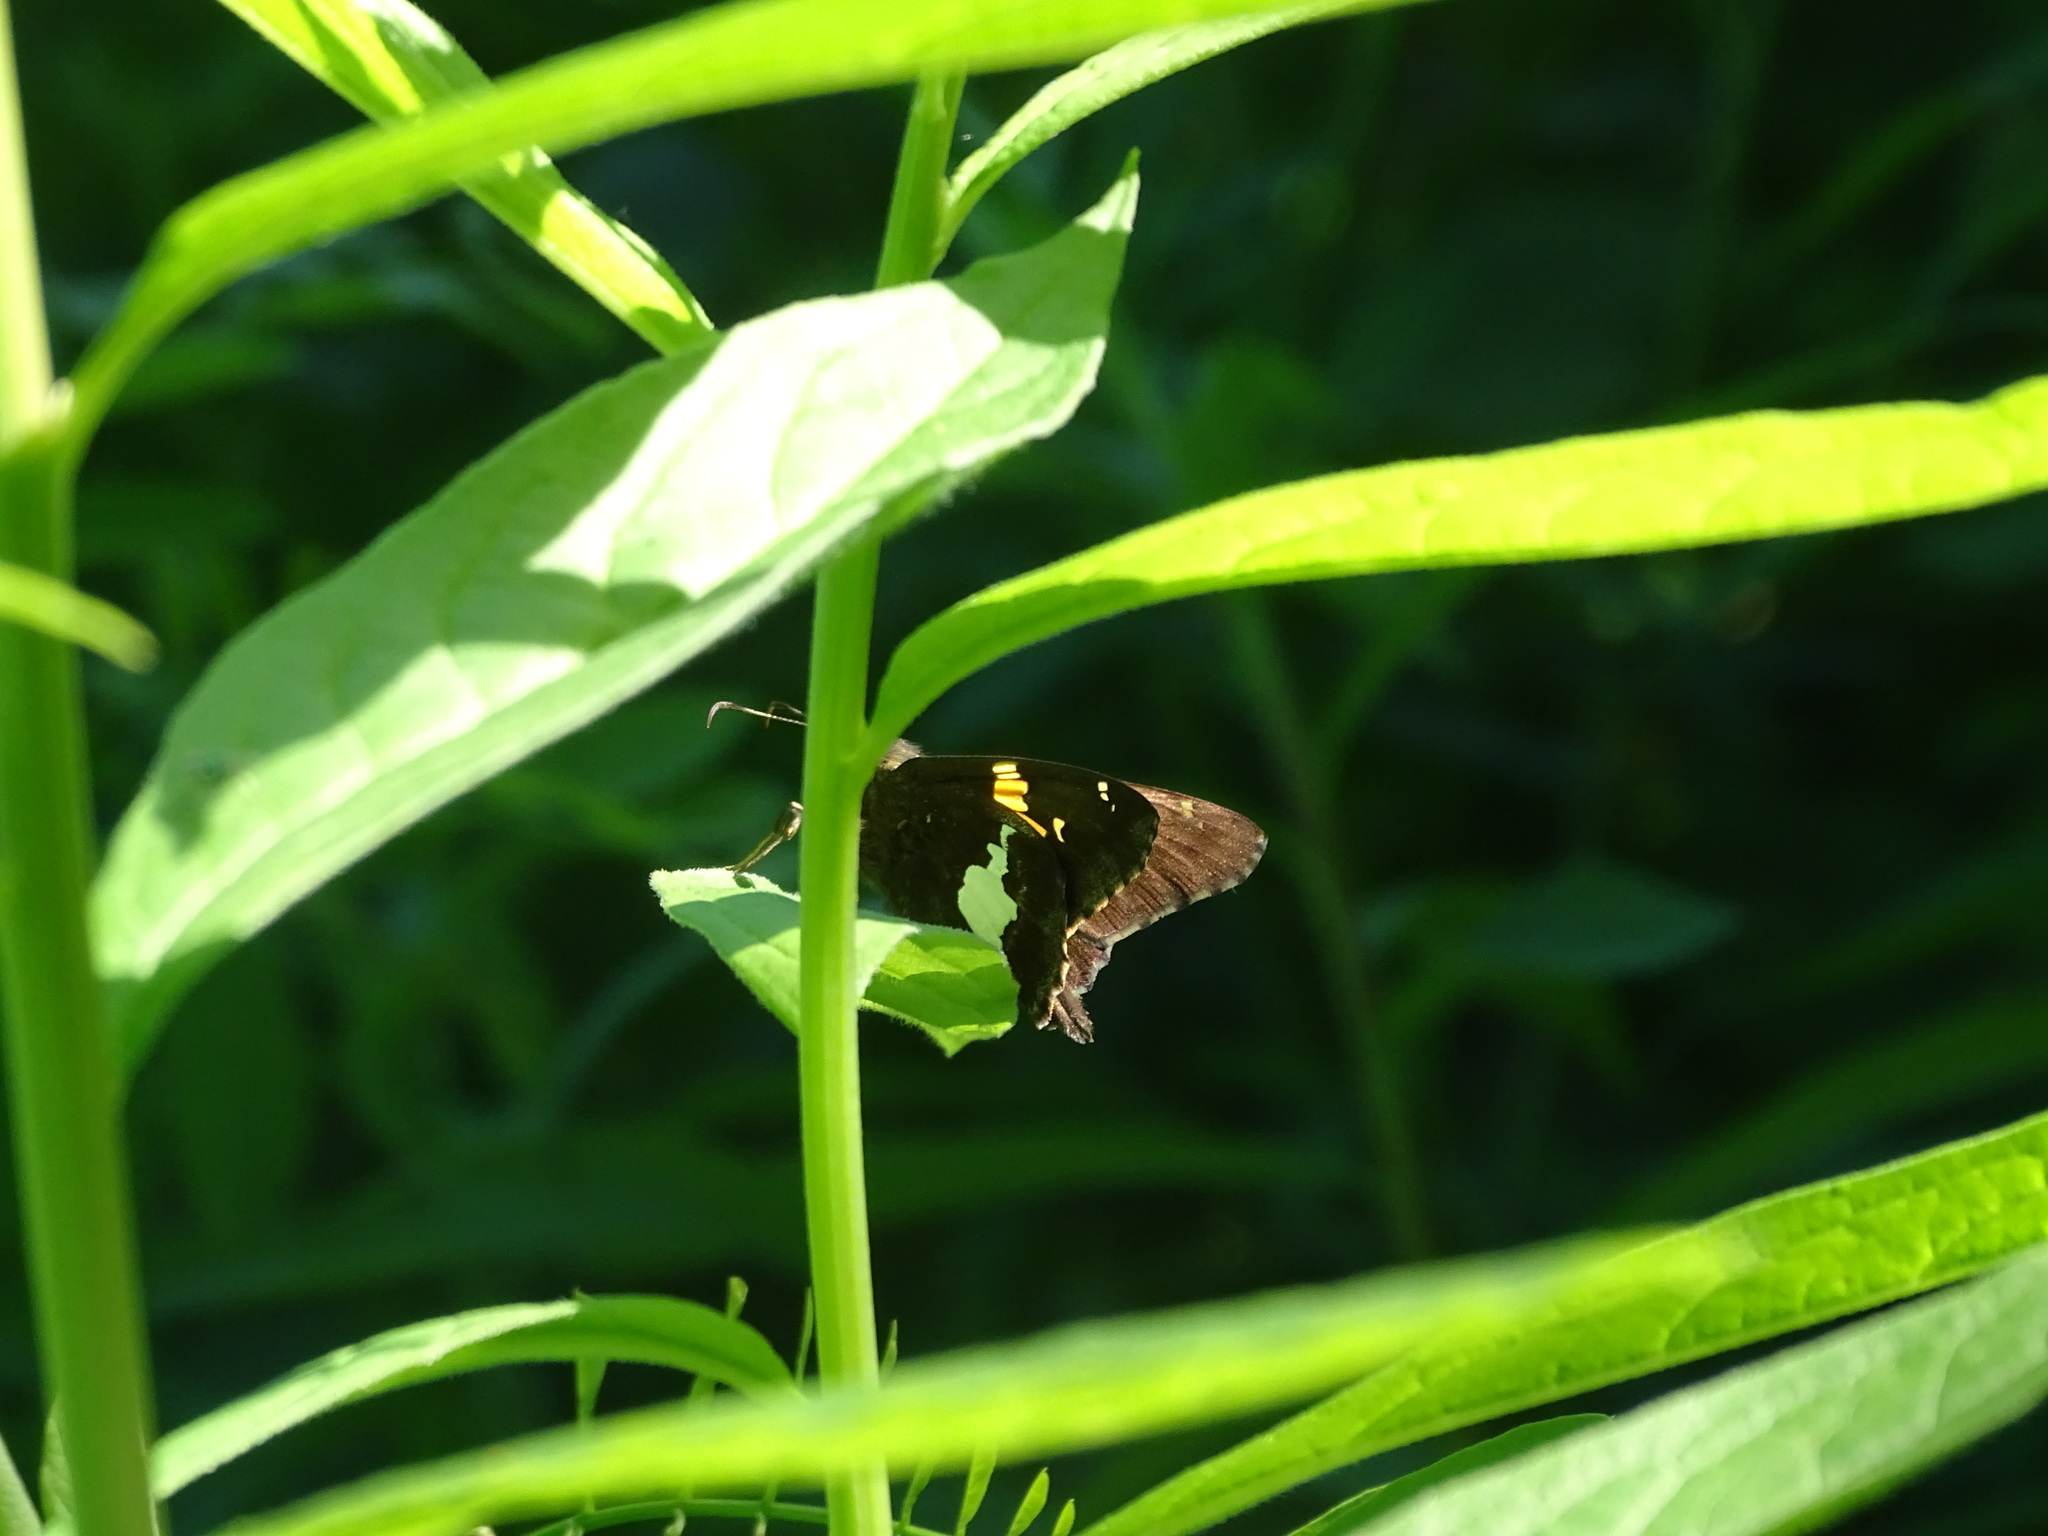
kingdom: Animalia
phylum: Arthropoda
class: Insecta
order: Lepidoptera
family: Hesperiidae
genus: Epargyreus
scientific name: Epargyreus clarus
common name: Silver-spotted skipper
